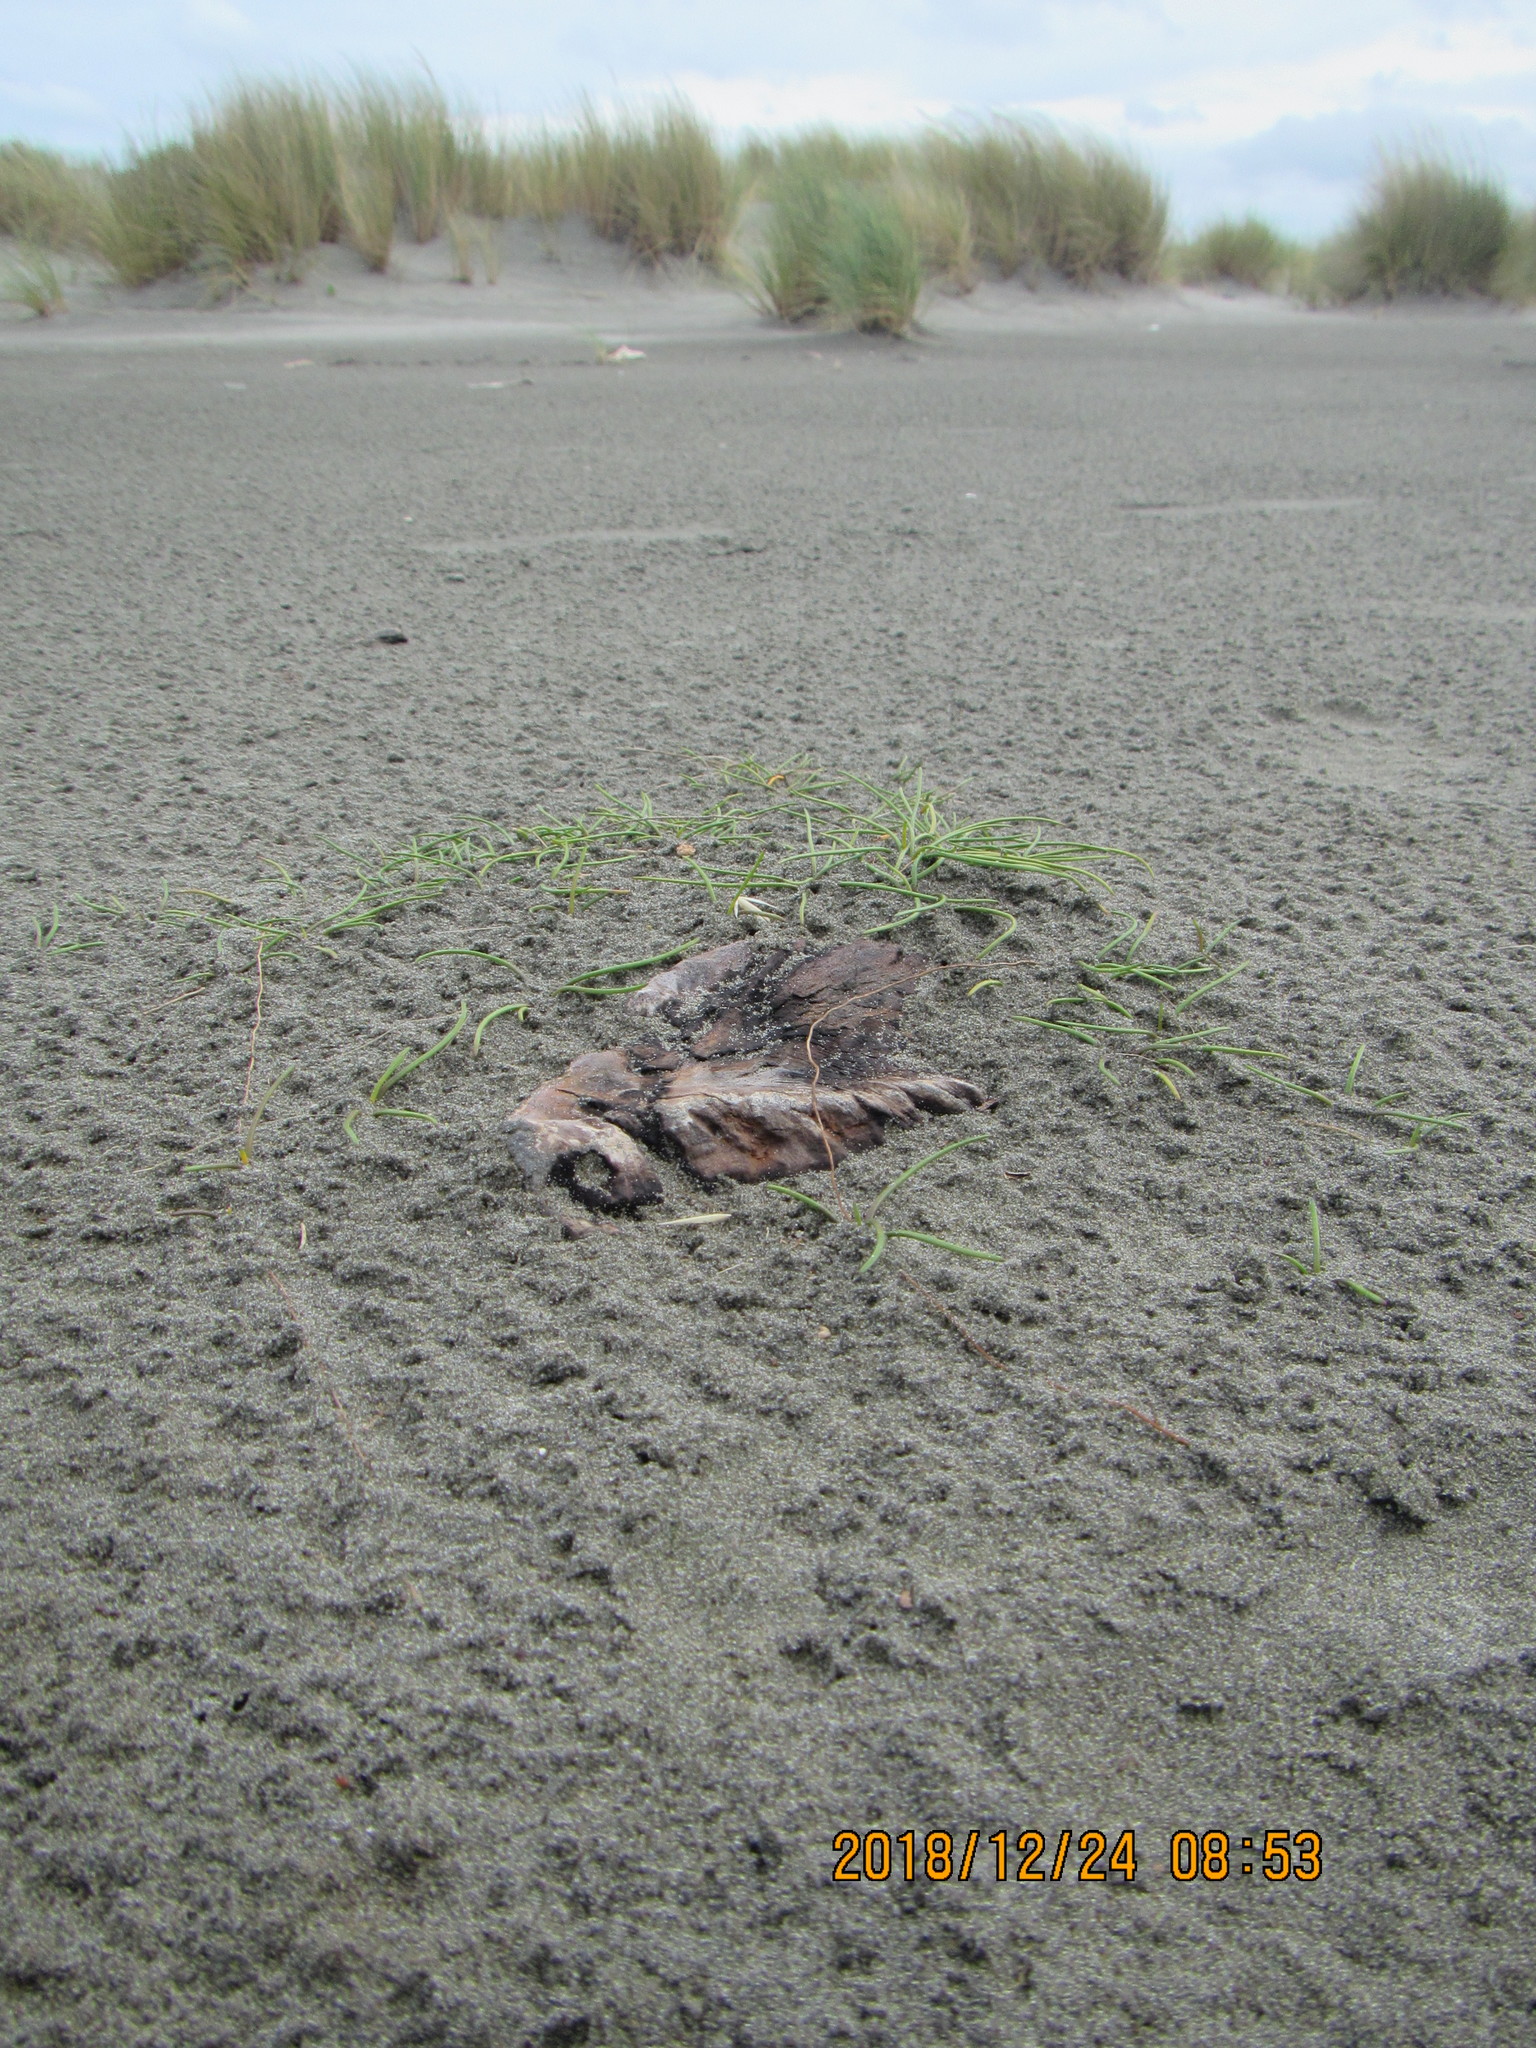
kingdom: Plantae
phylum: Tracheophyta
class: Liliopsida
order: Alismatales
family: Juncaginaceae
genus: Triglochin
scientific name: Triglochin striata
